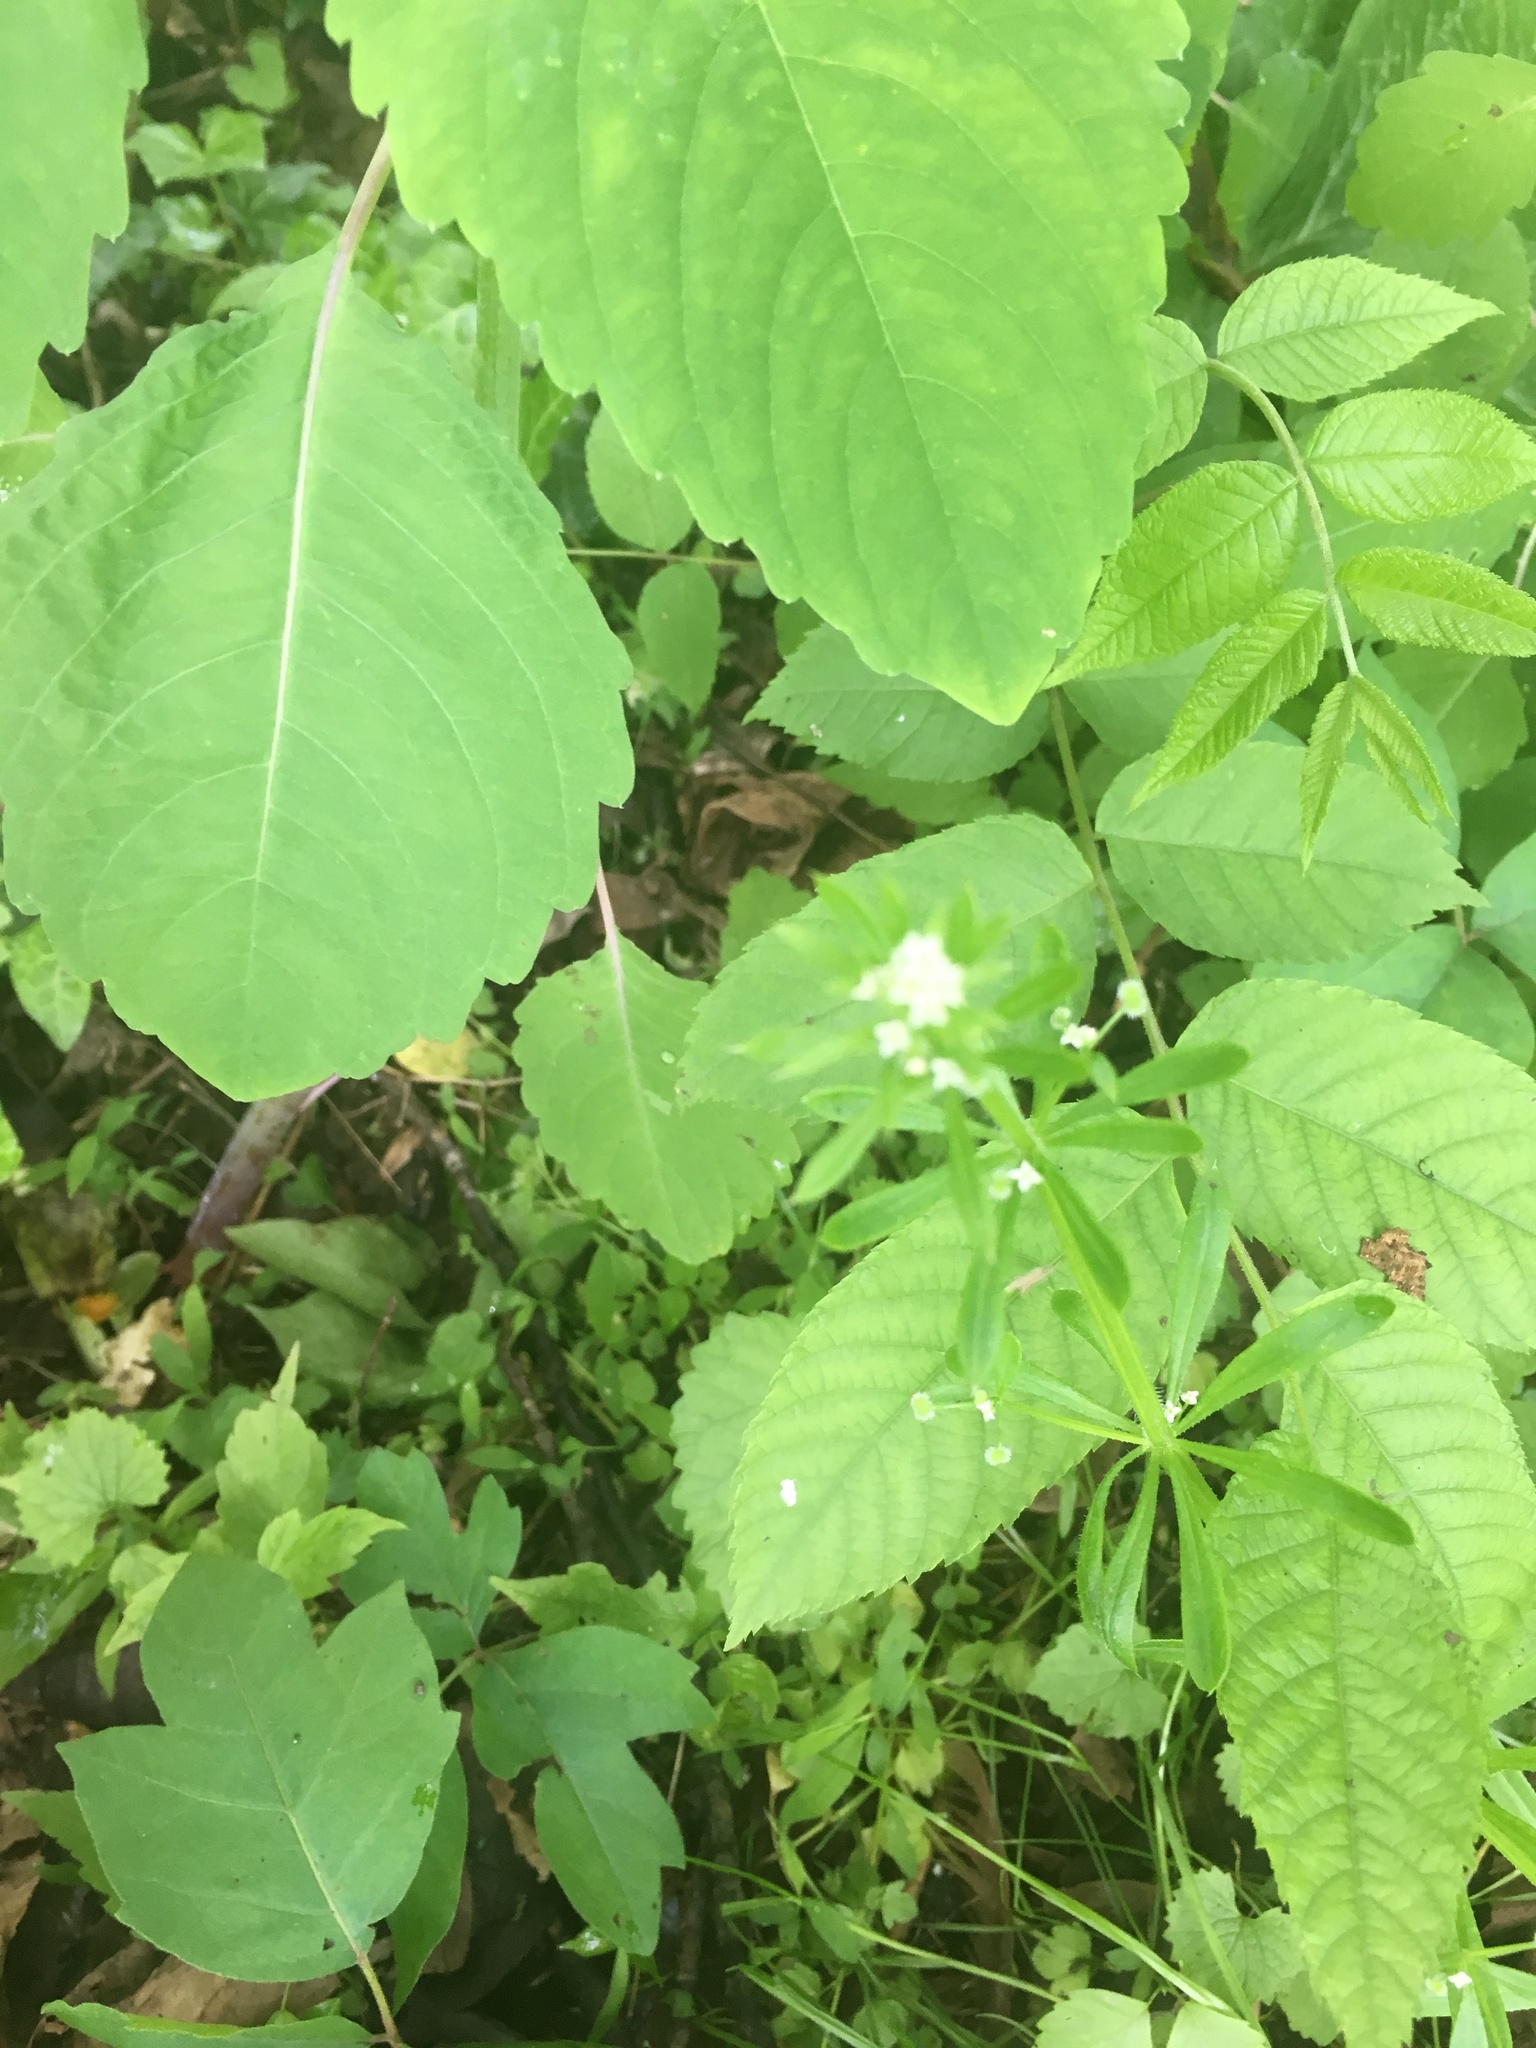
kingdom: Plantae
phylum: Tracheophyta
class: Magnoliopsida
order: Gentianales
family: Rubiaceae
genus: Galium
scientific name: Galium aparine
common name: Cleavers
